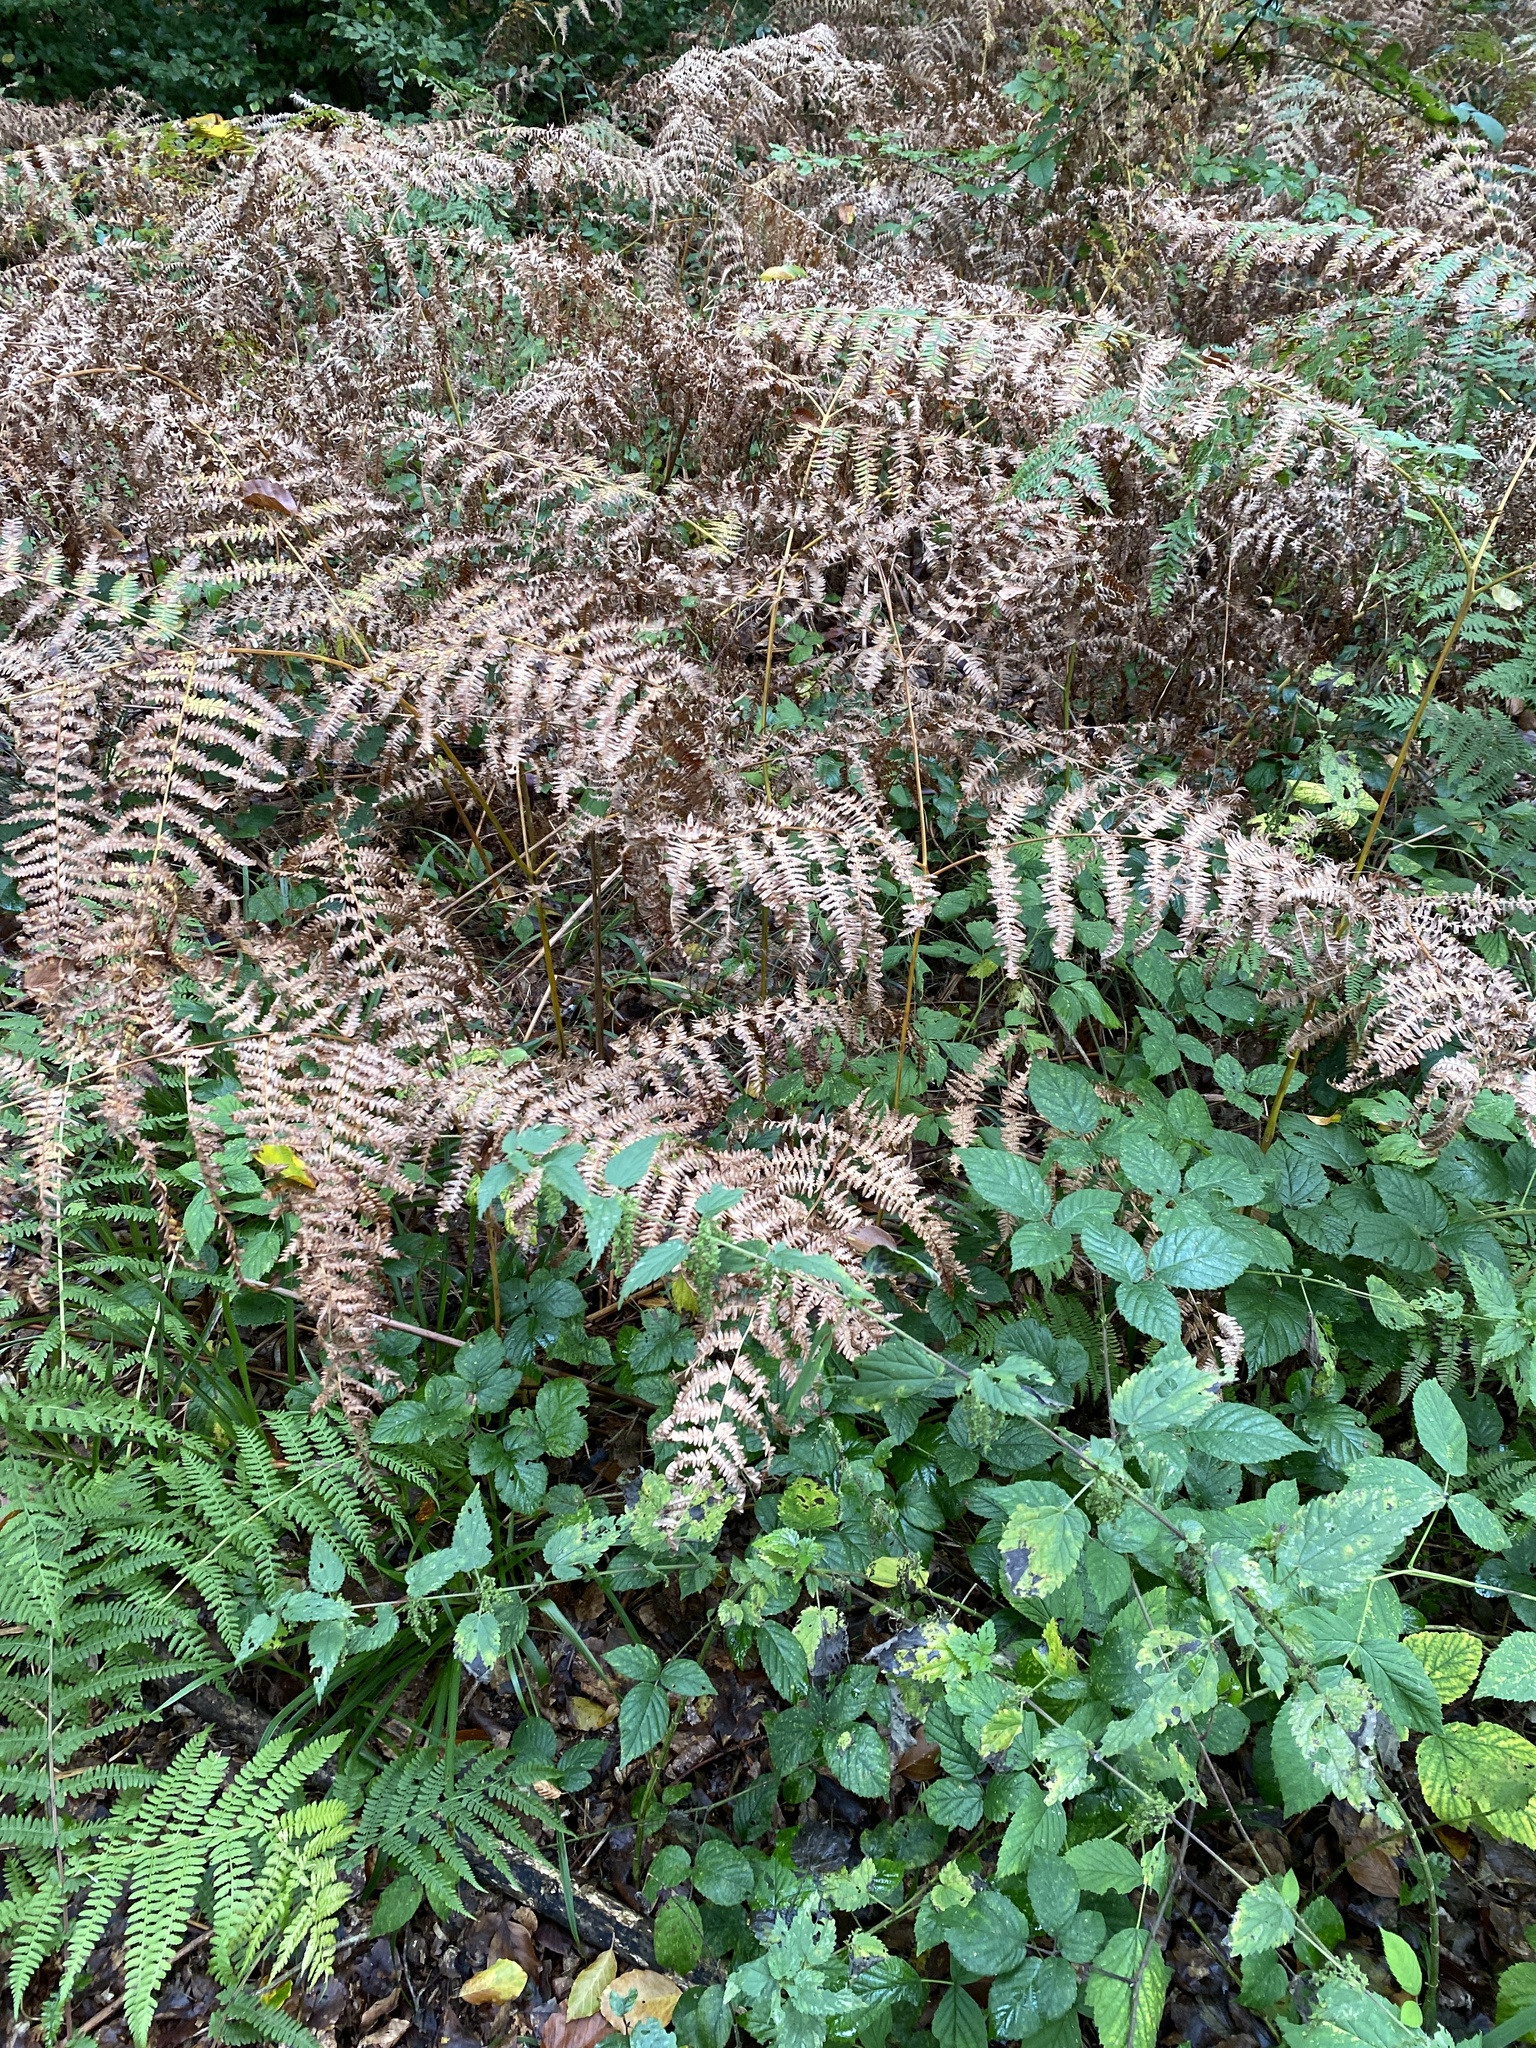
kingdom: Plantae
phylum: Tracheophyta
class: Polypodiopsida
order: Polypodiales
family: Dennstaedtiaceae
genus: Pteridium
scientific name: Pteridium aquilinum
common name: Bracken
